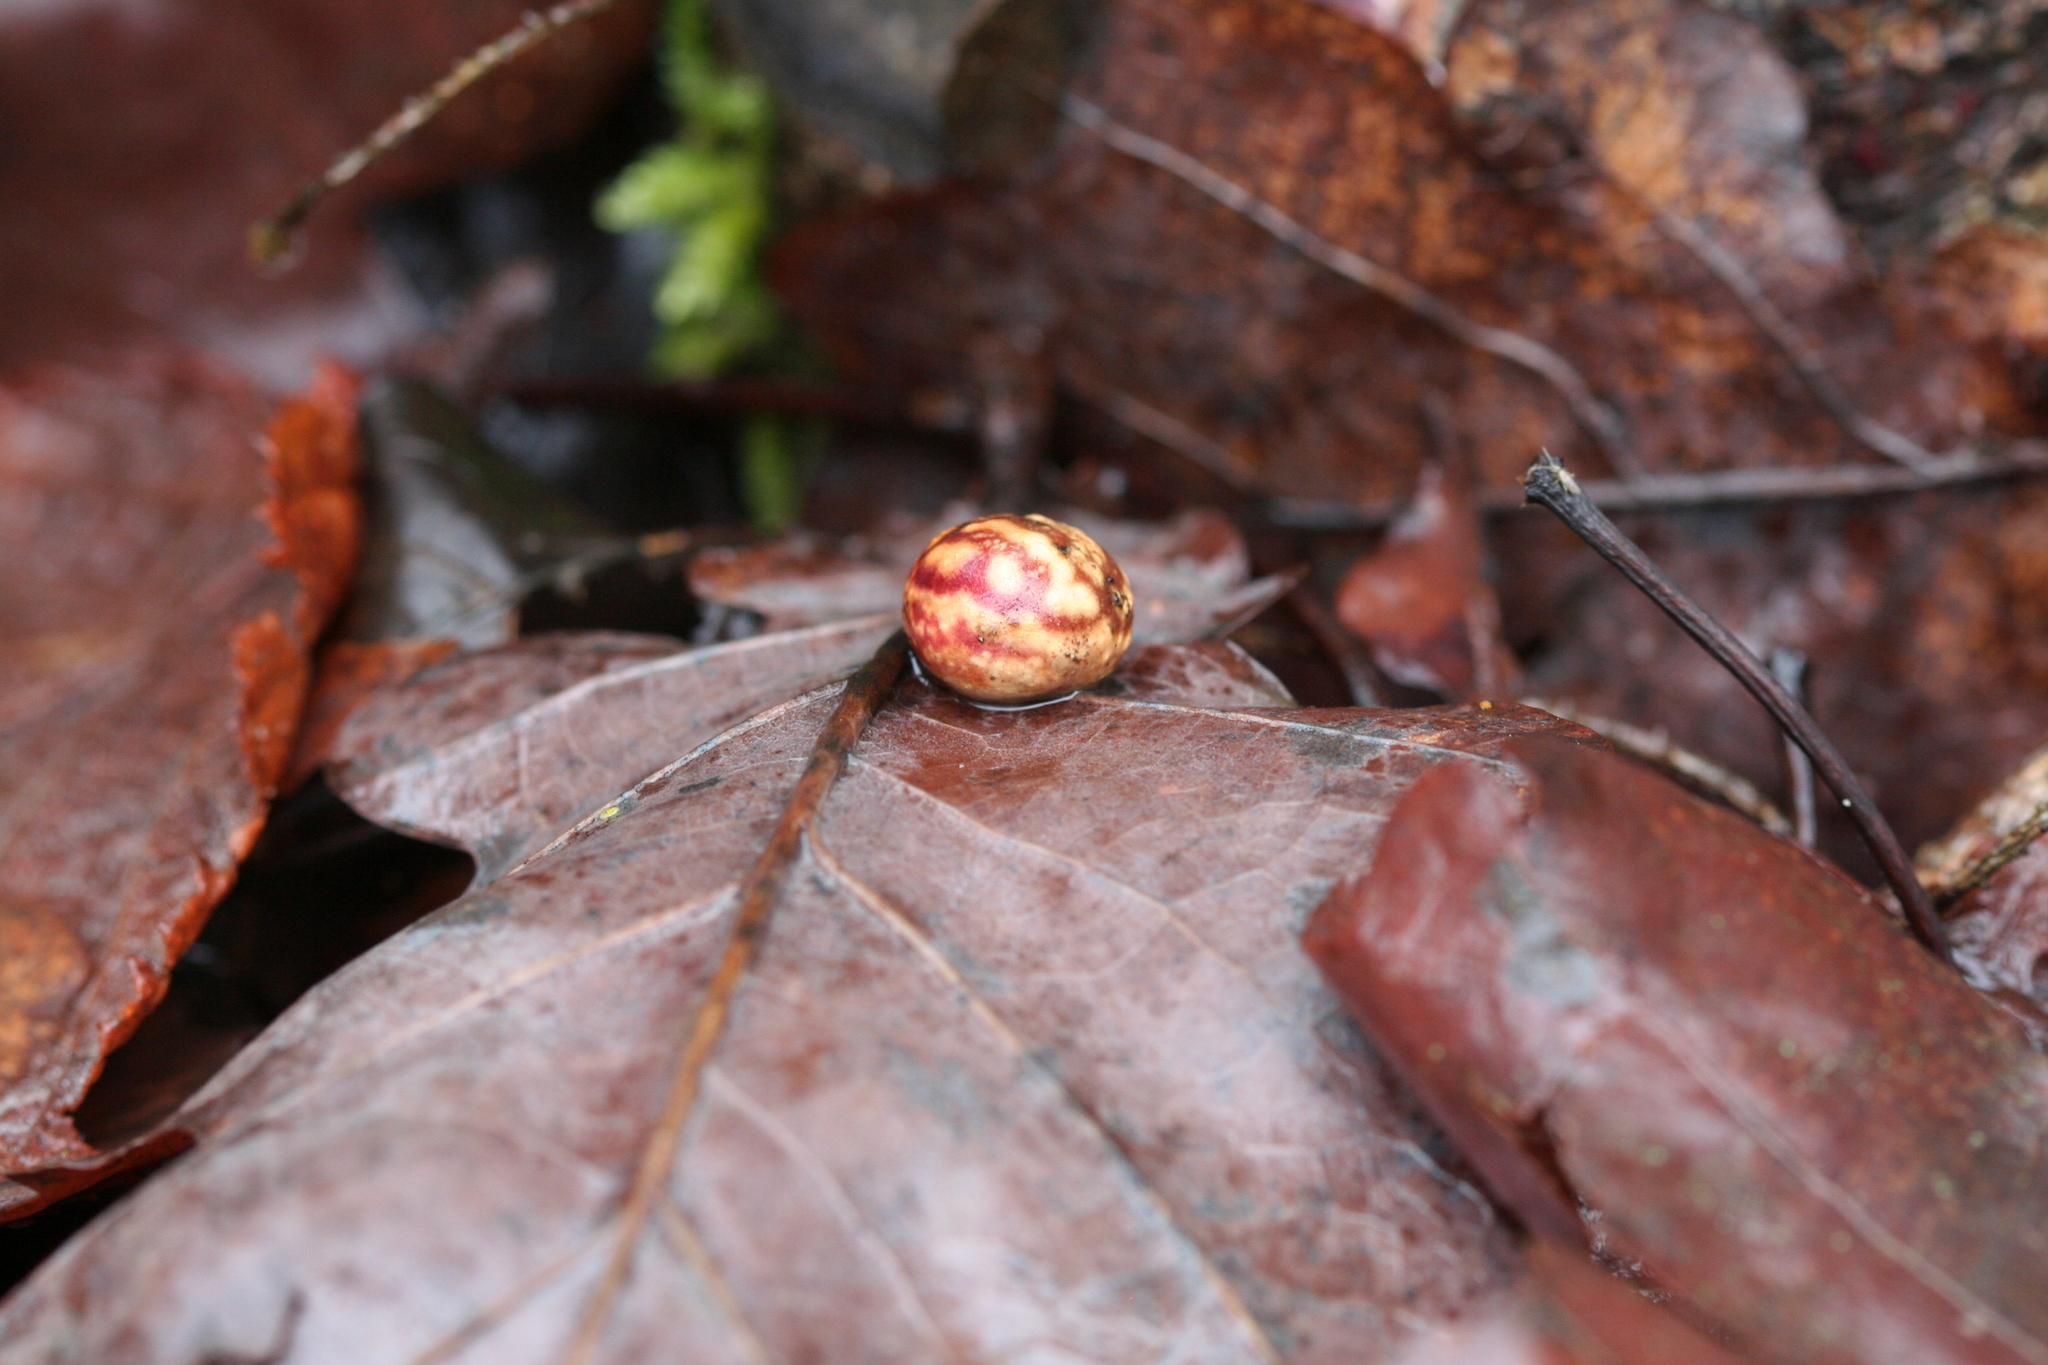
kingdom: Animalia
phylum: Arthropoda
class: Insecta
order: Hymenoptera
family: Cynipidae
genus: Cynips
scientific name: Cynips longiventris
